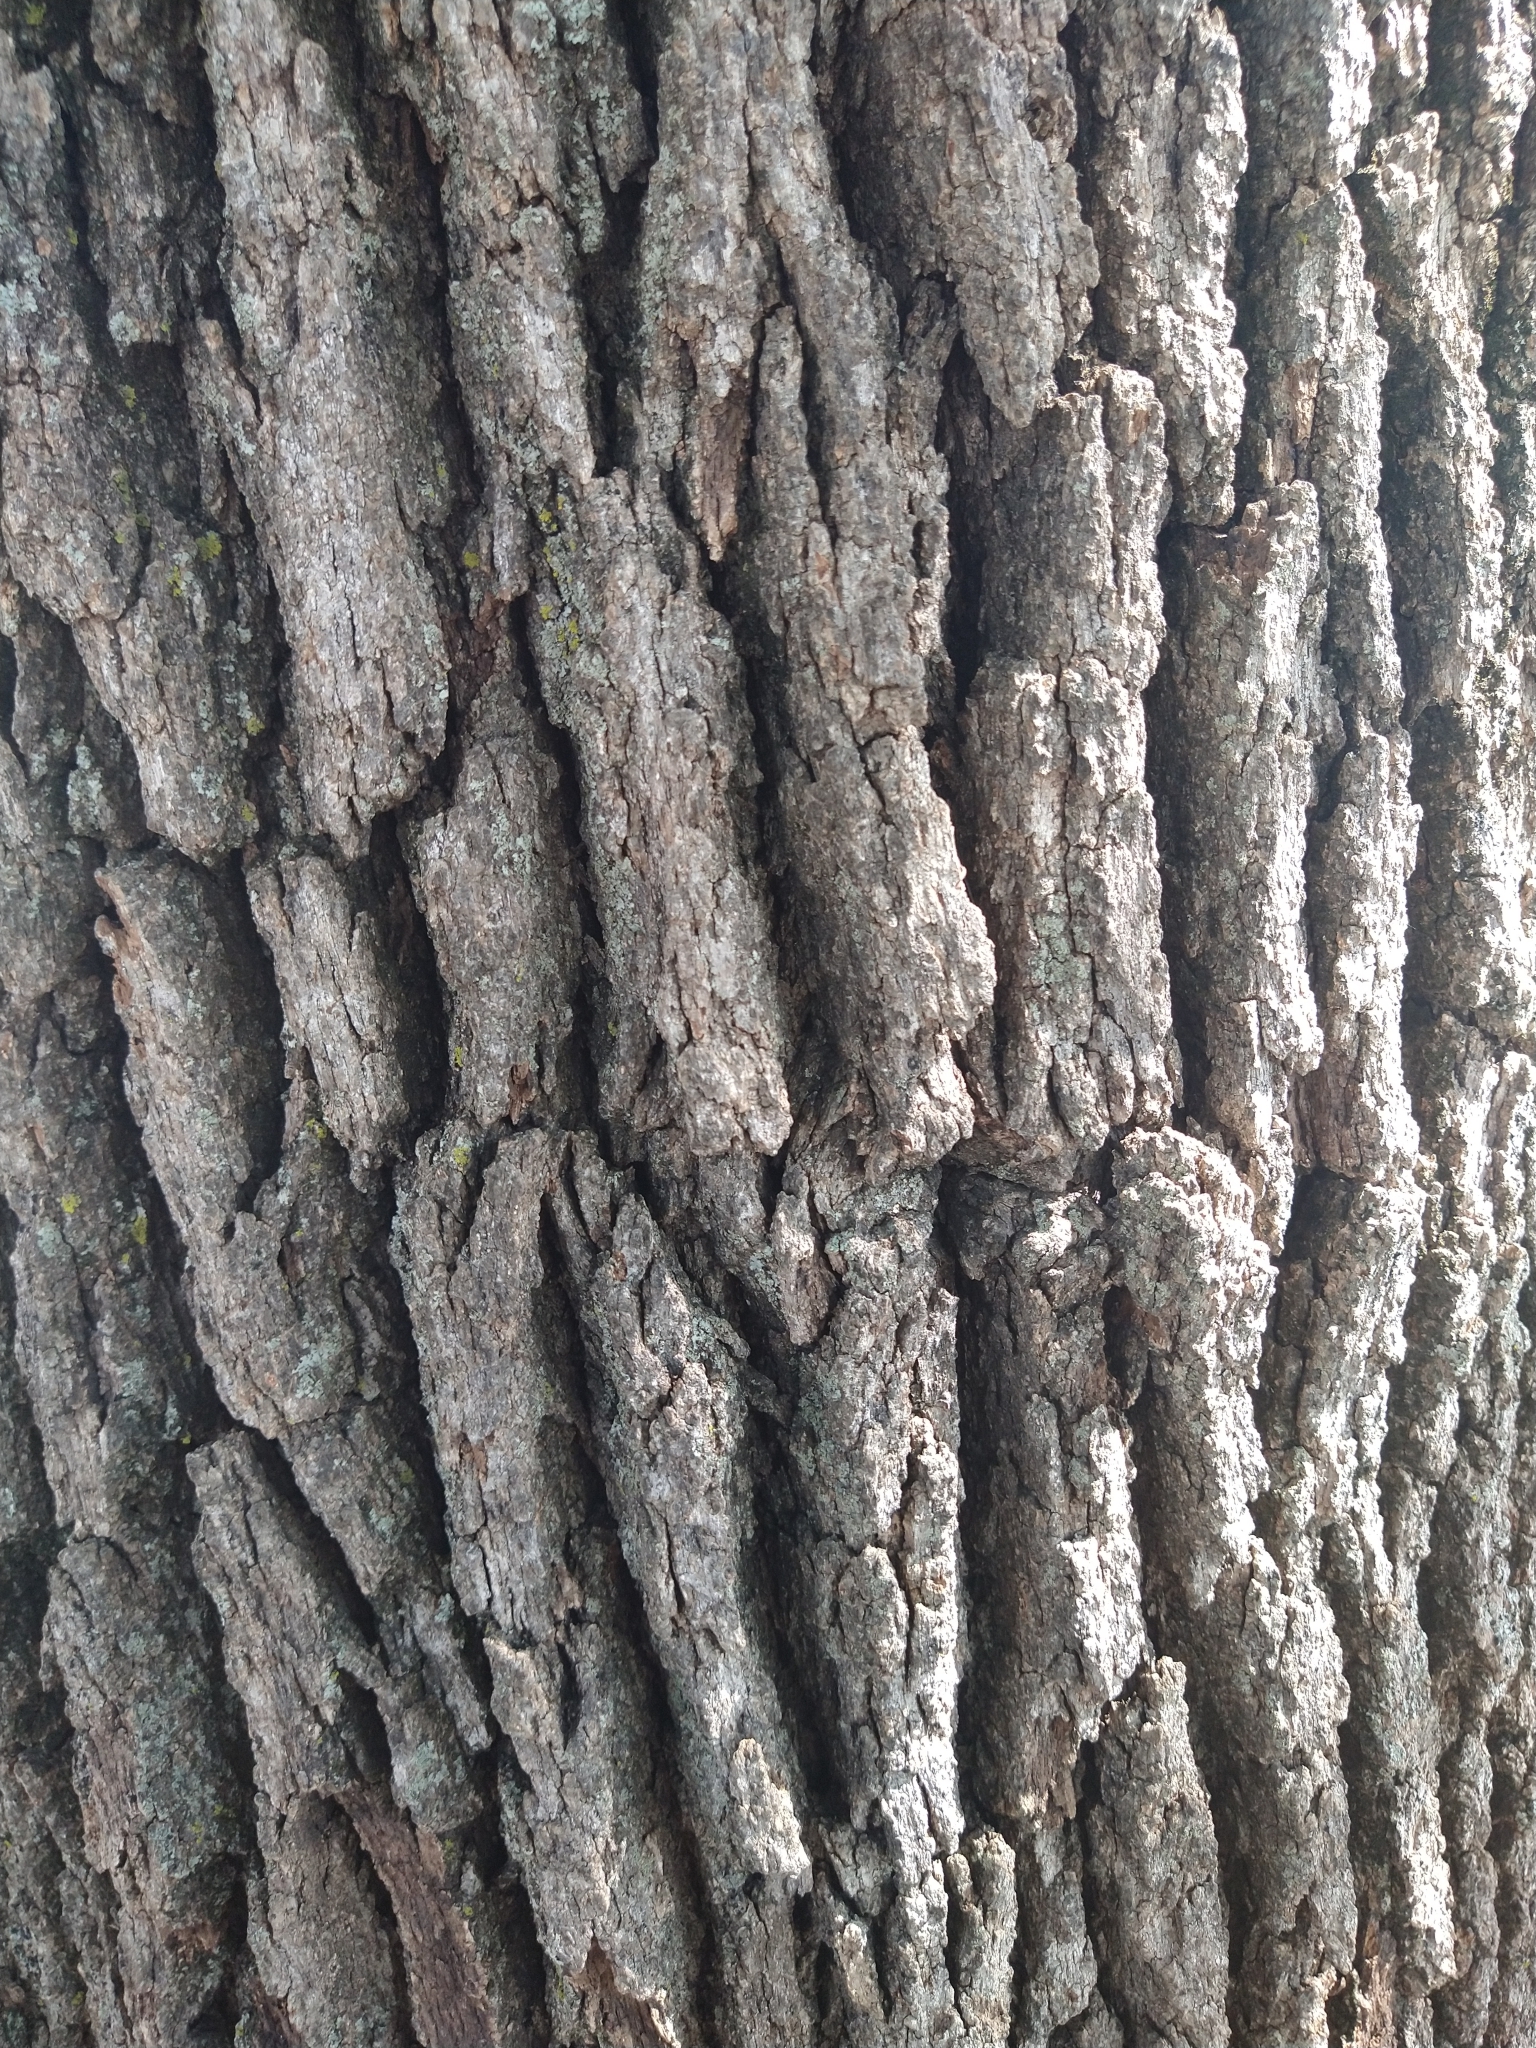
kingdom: Plantae
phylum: Tracheophyta
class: Magnoliopsida
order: Fagales
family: Fagaceae
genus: Quercus
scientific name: Quercus stellata
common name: Post oak
